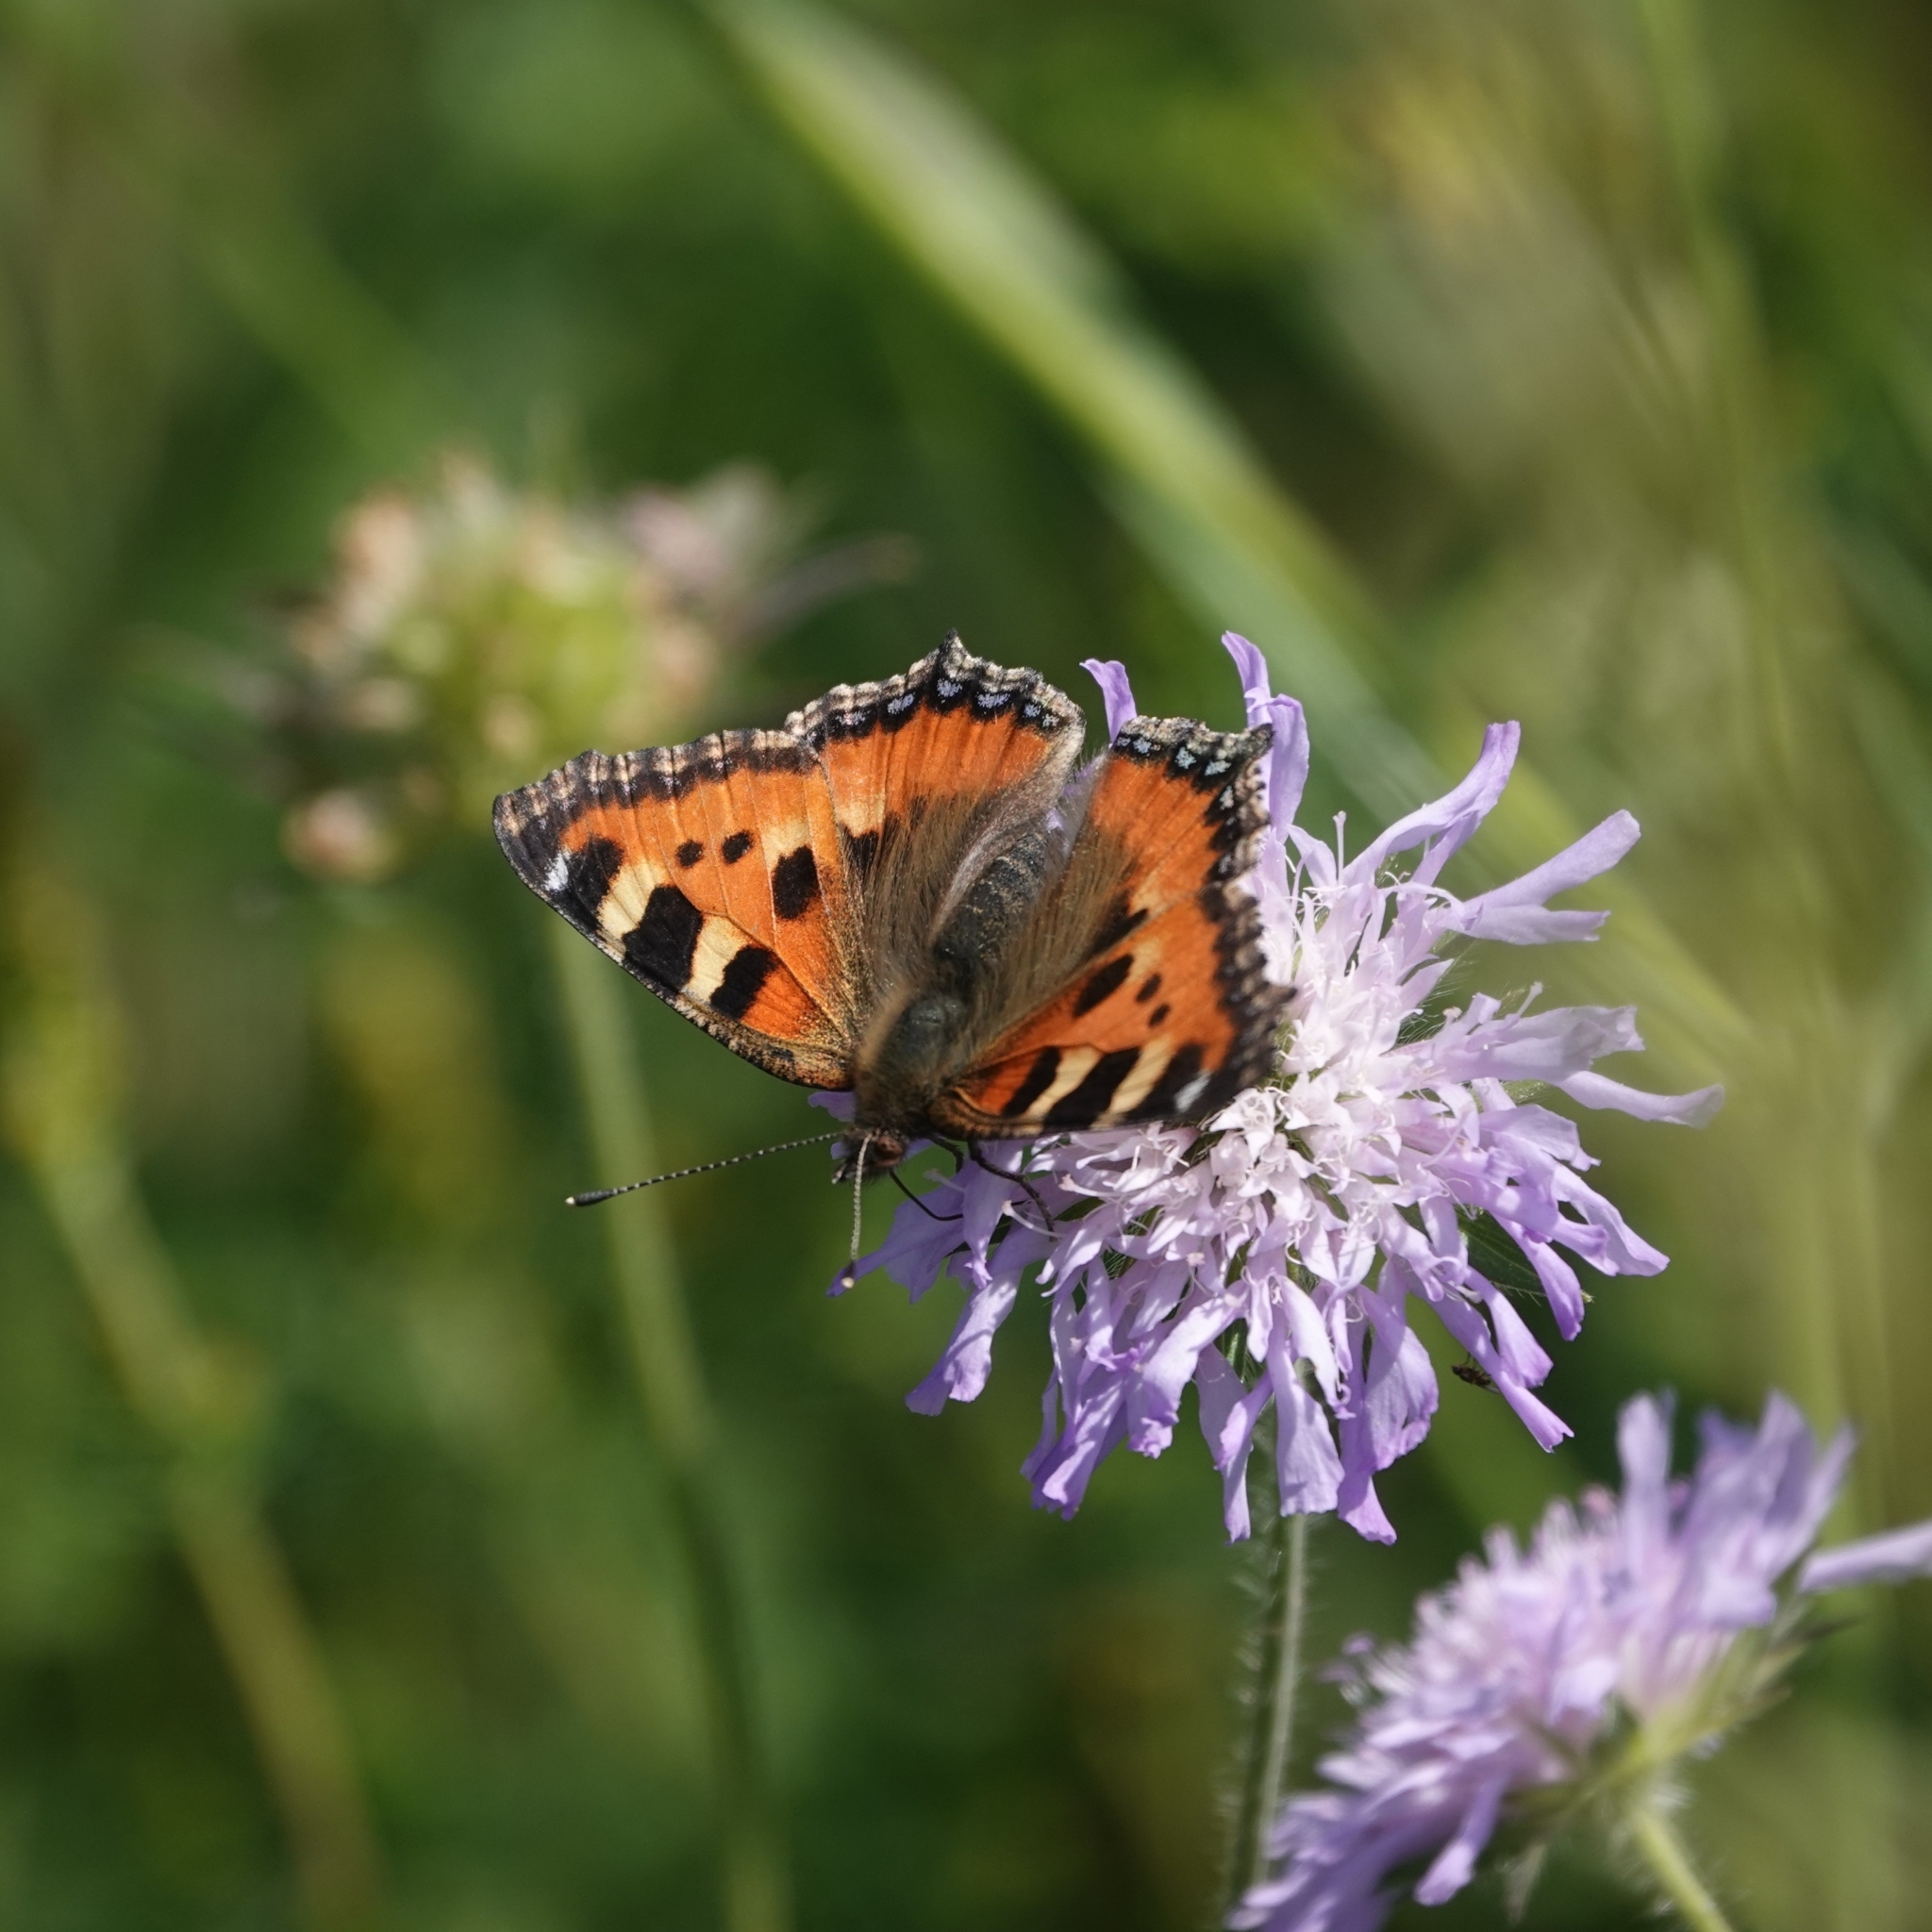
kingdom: Animalia
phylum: Arthropoda
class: Insecta
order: Lepidoptera
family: Nymphalidae
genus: Aglais
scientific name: Aglais urticae
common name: Small tortoiseshell
